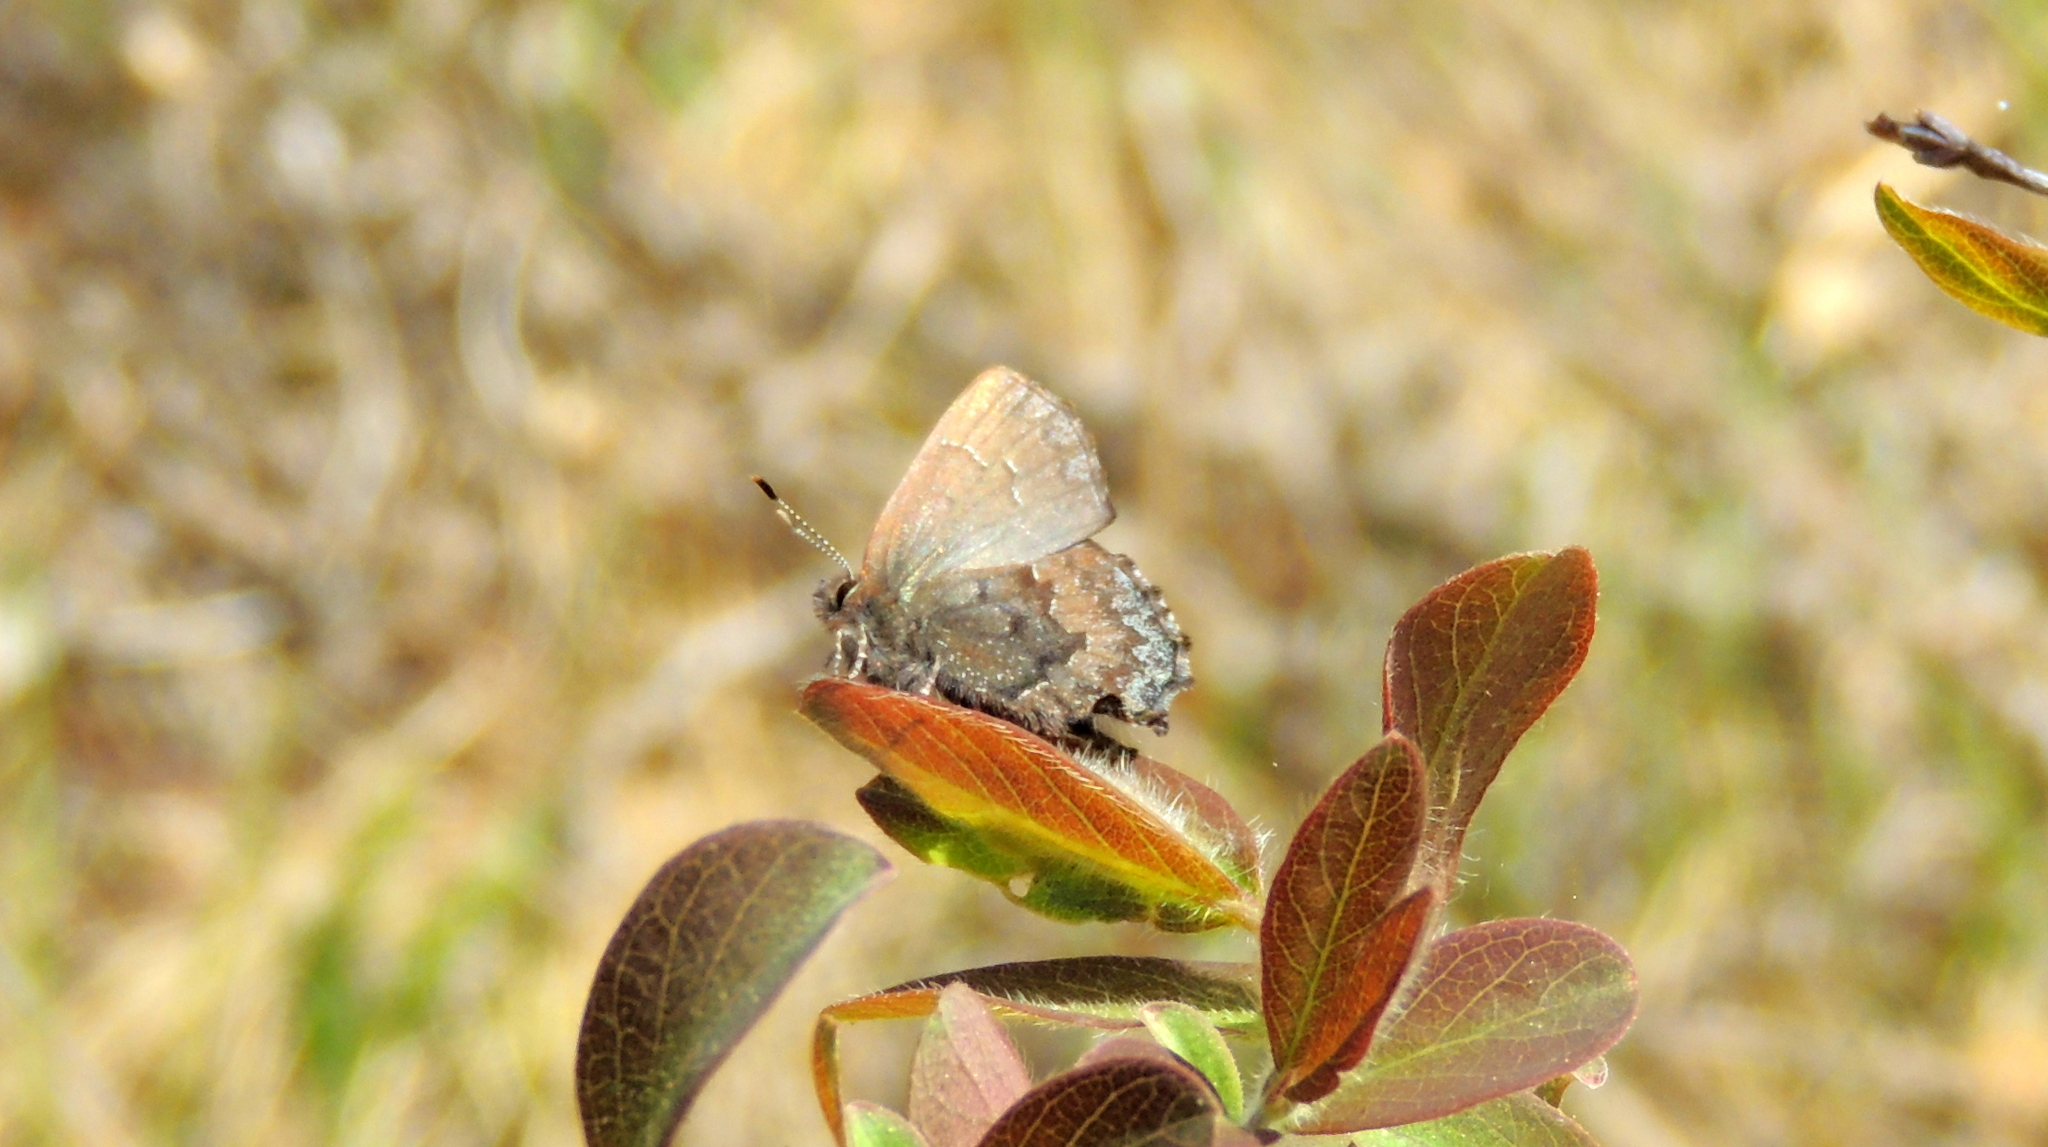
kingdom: Animalia
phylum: Arthropoda
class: Insecta
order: Lepidoptera
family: Lycaenidae
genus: Ginzia
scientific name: Ginzia Ahlbergia frivaldszkyi
